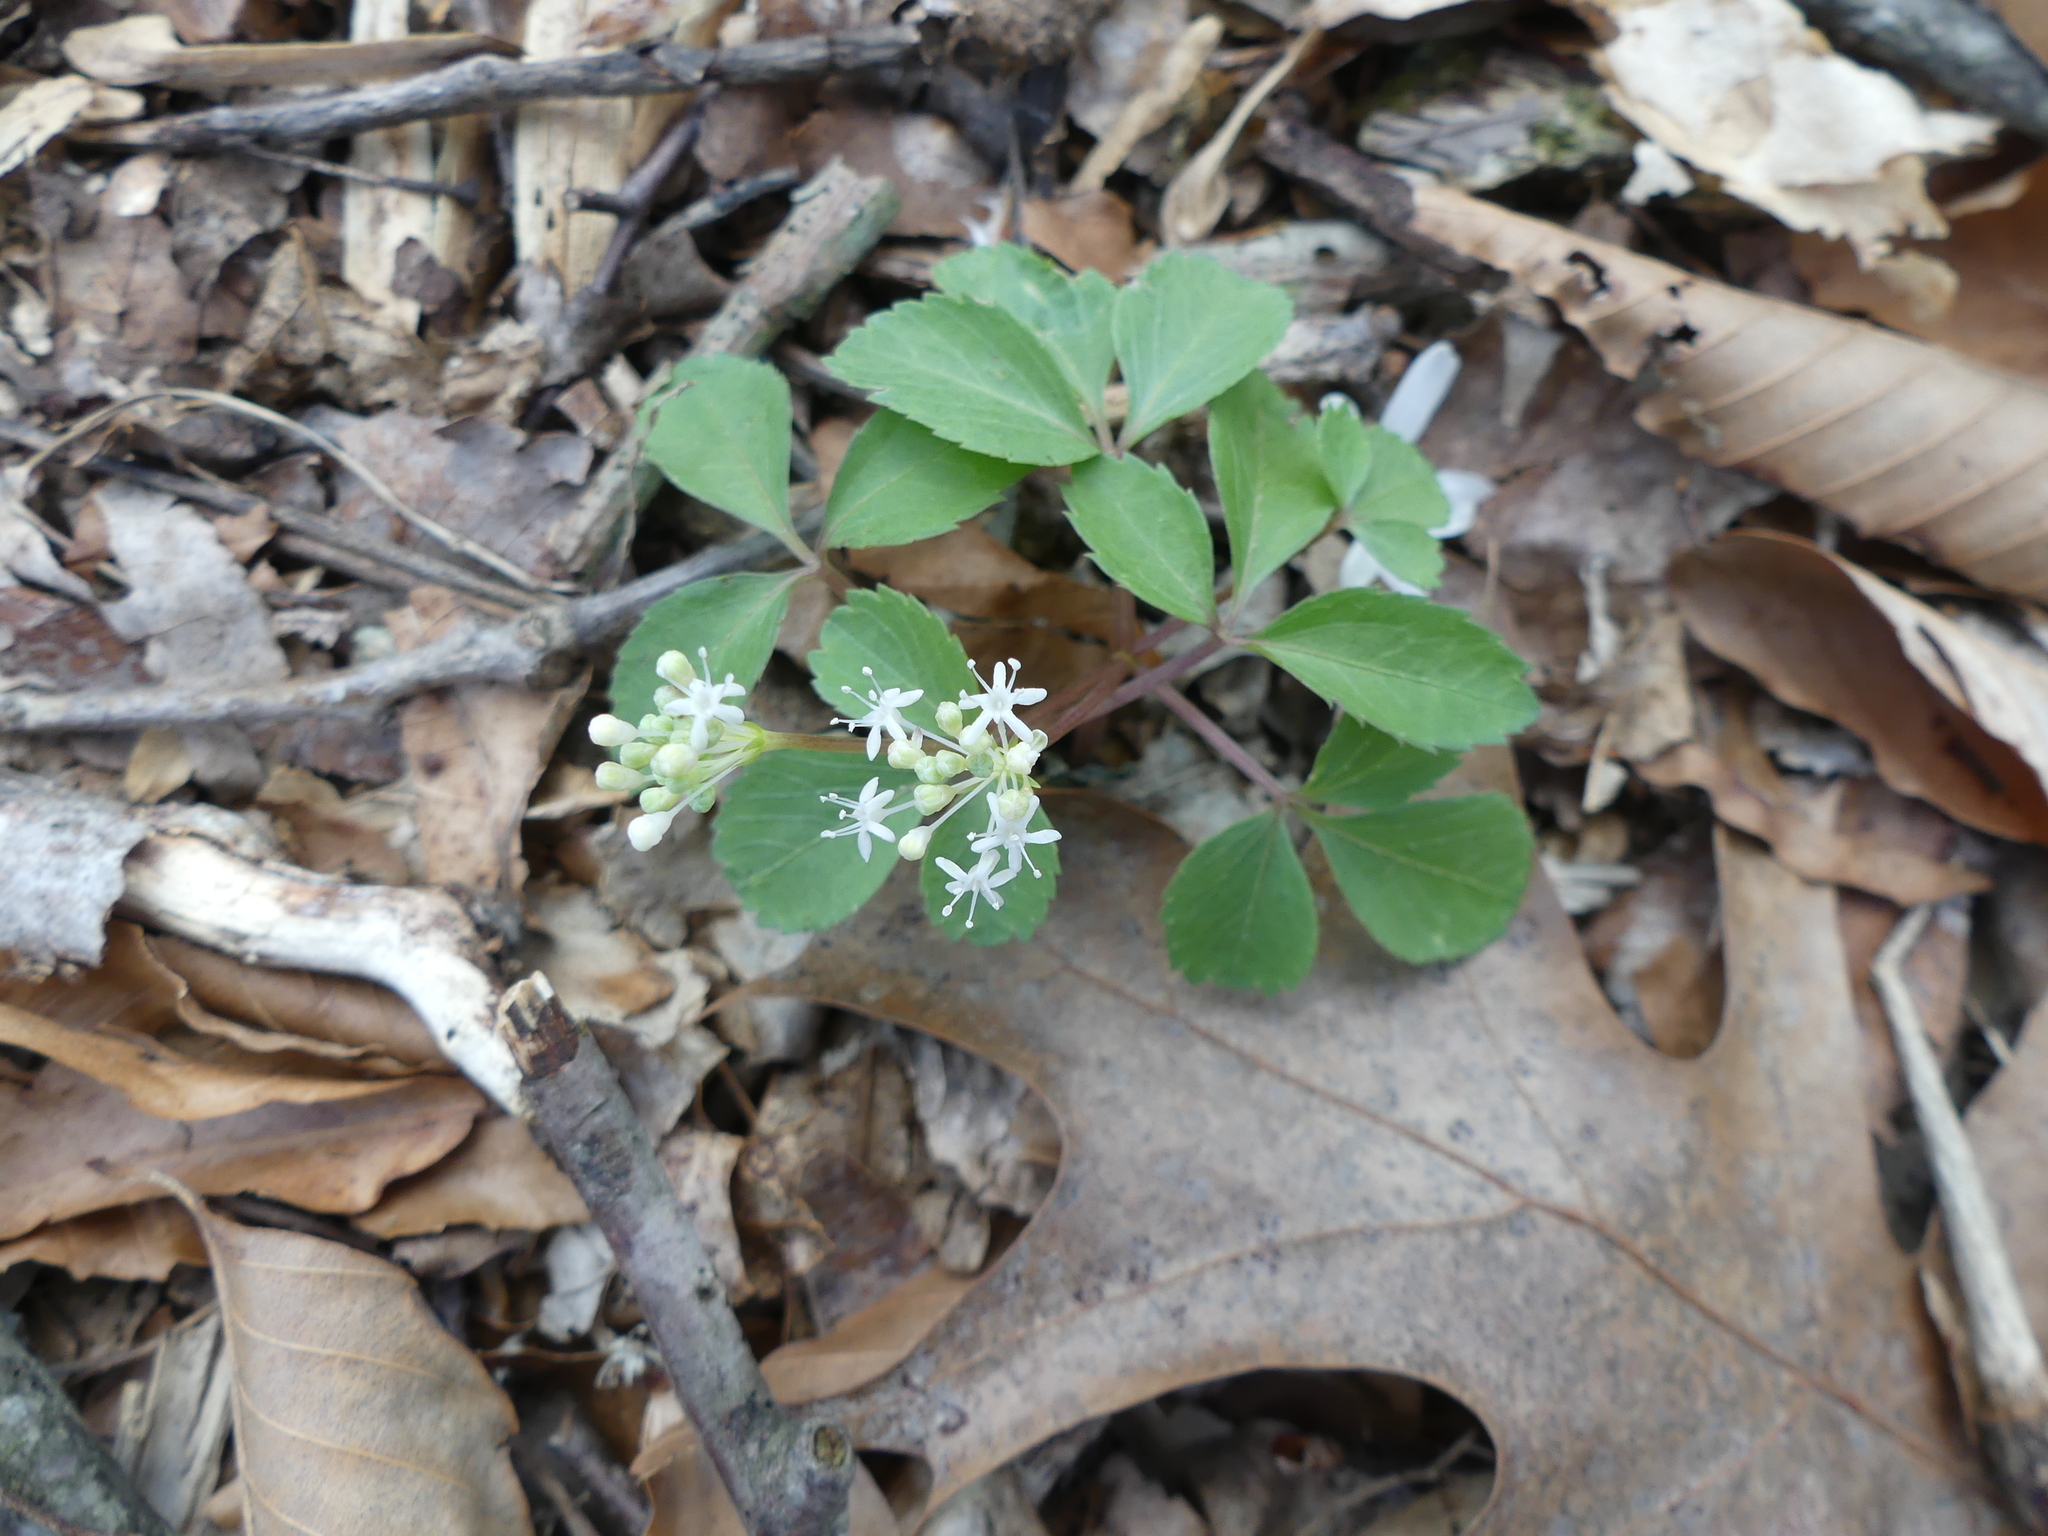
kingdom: Plantae
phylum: Tracheophyta
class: Magnoliopsida
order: Apiales
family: Araliaceae
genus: Panax
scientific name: Panax trifolius
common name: Dwarf ginseng
